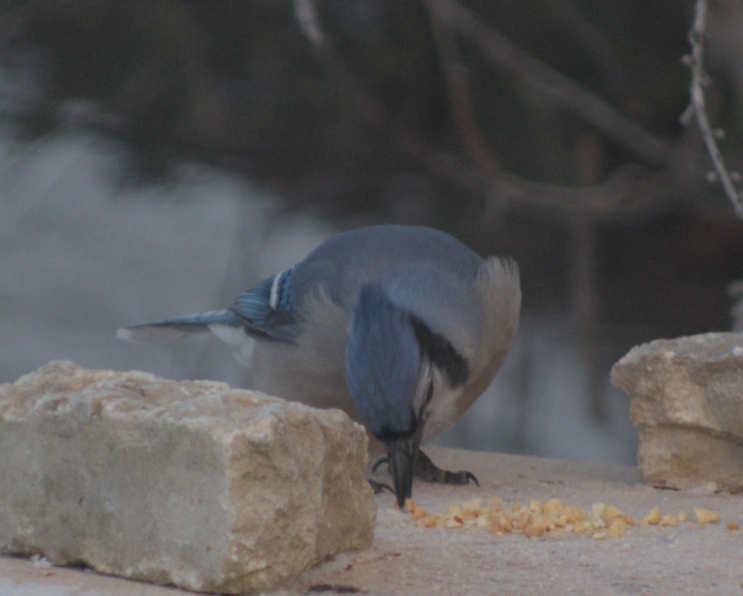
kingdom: Animalia
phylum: Chordata
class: Aves
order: Passeriformes
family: Corvidae
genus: Cyanocitta
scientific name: Cyanocitta cristata
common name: Blue jay
